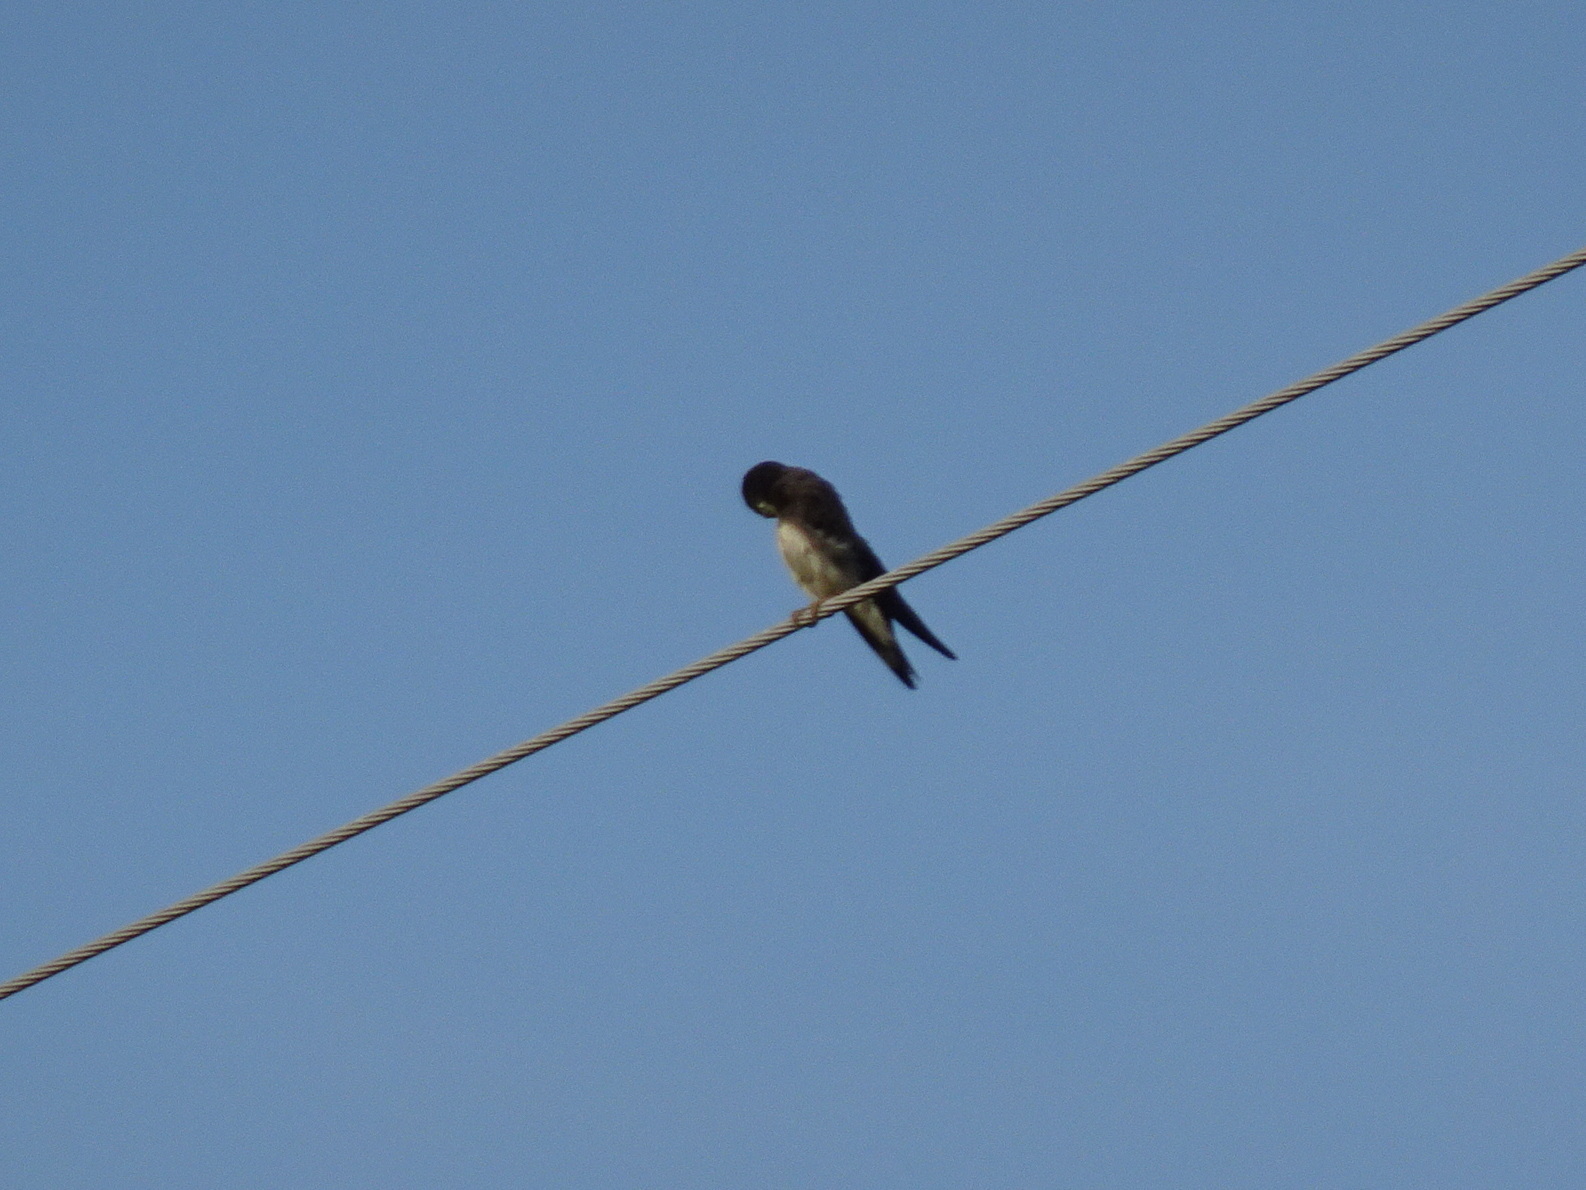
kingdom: Animalia
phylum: Chordata
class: Aves
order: Passeriformes
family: Hirundinidae
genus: Riparia
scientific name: Riparia riparia
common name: Sand martin
